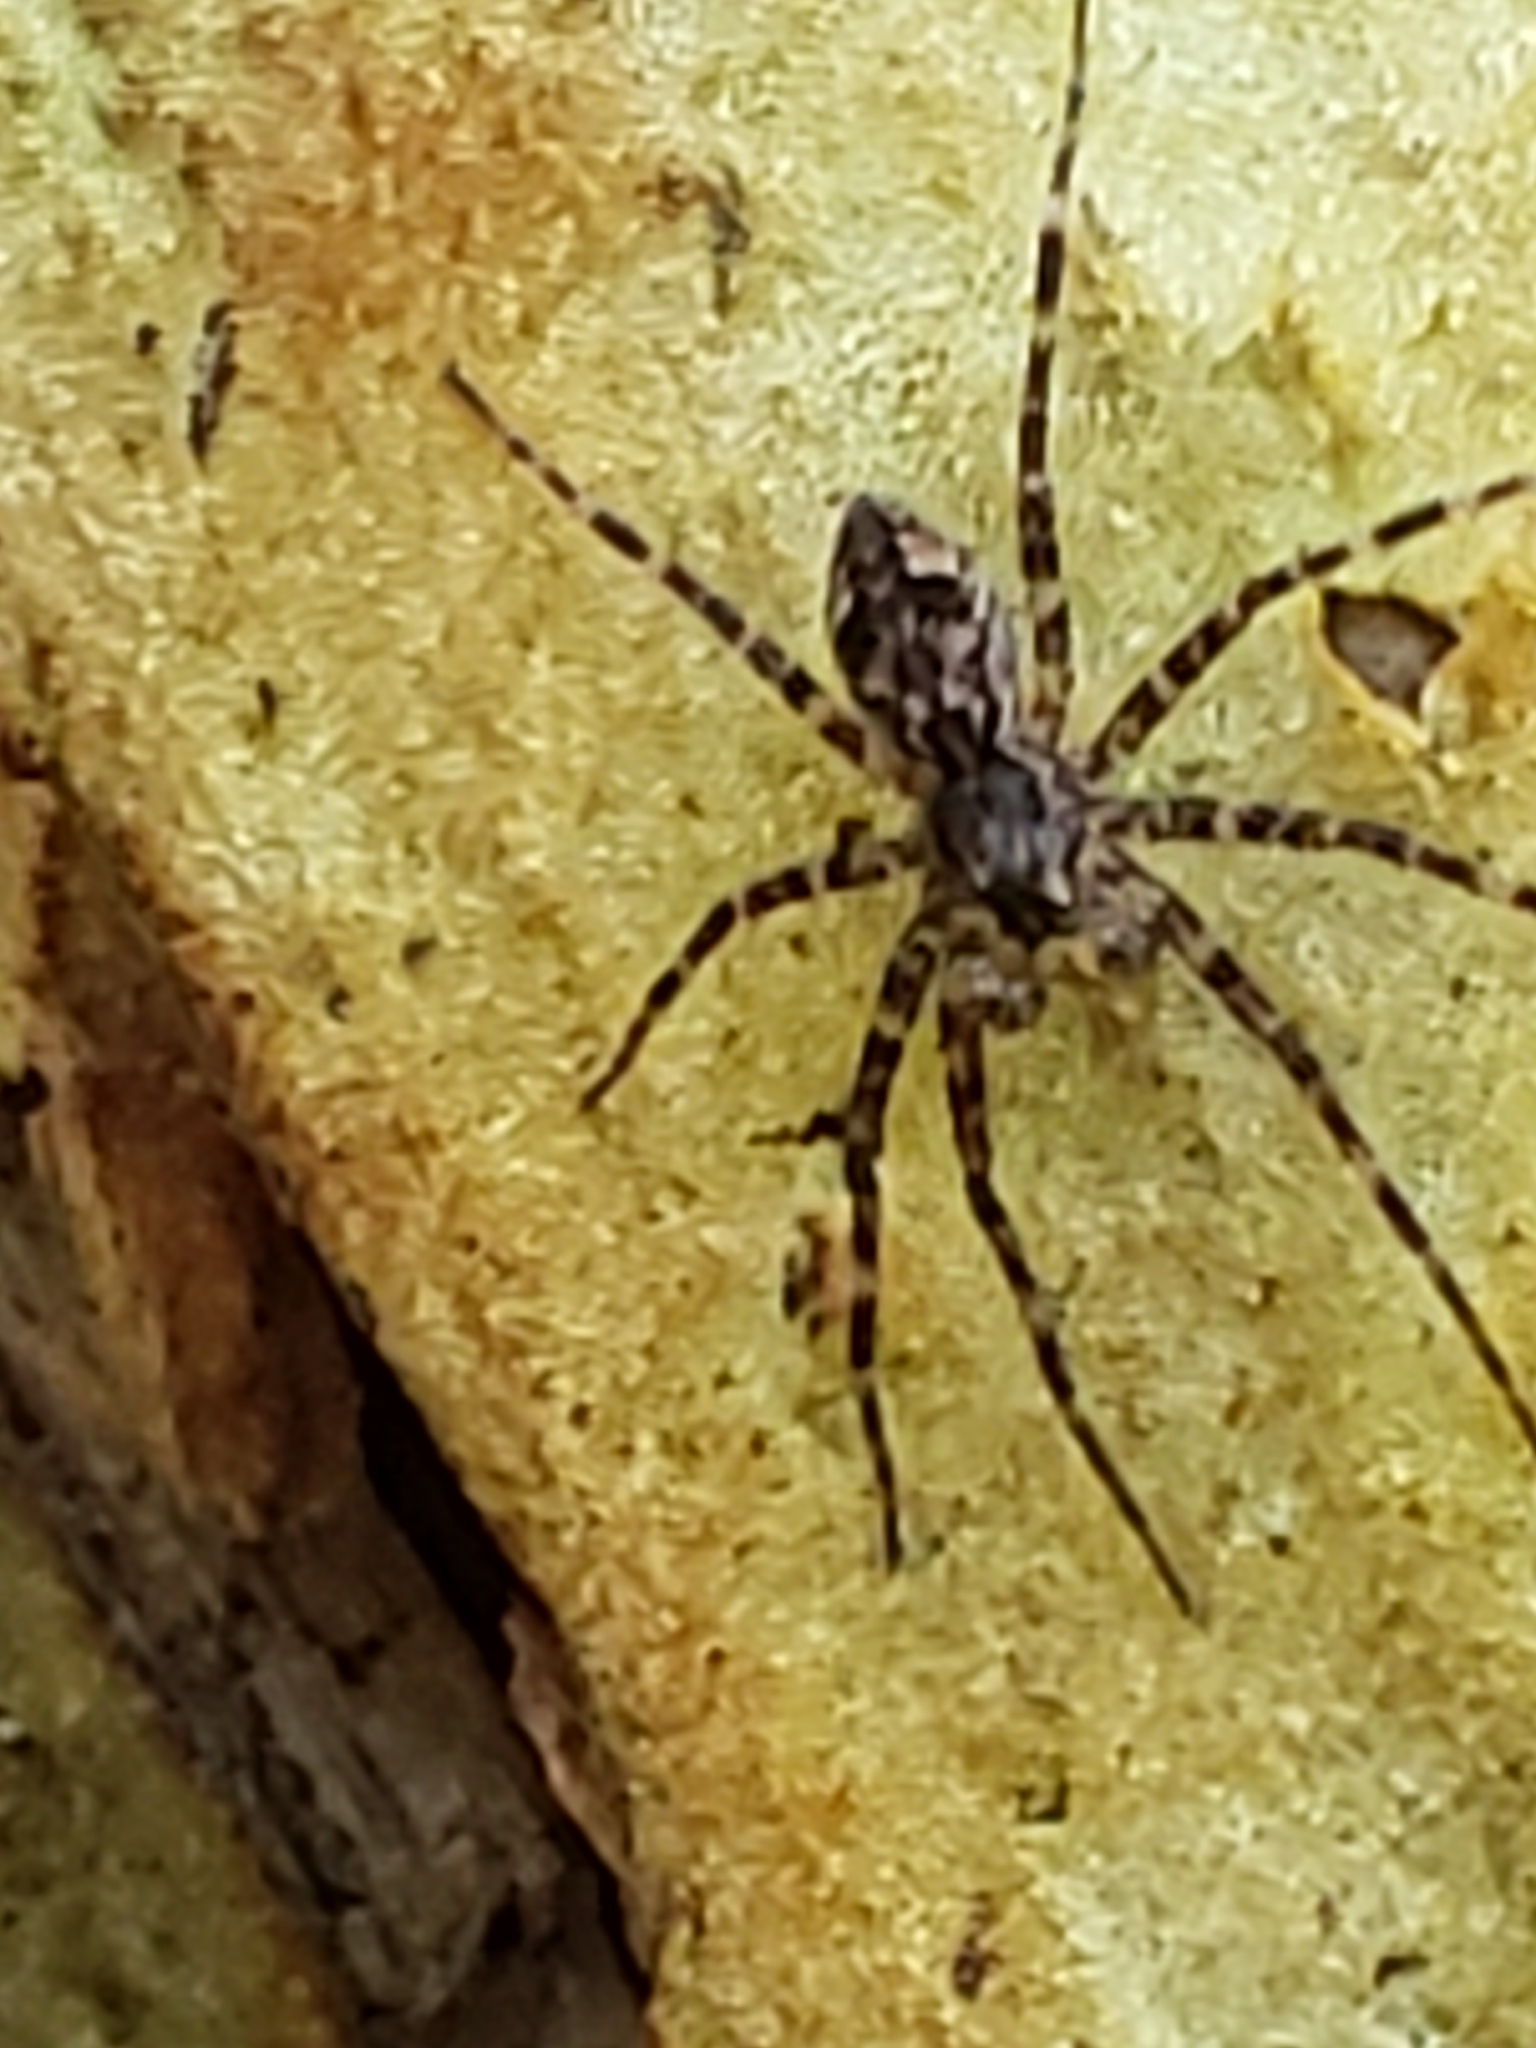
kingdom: Animalia
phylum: Arthropoda
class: Arachnida
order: Araneae
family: Pisauridae
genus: Dolomedes
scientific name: Dolomedes tenebrosus
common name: Dark fishing spider
